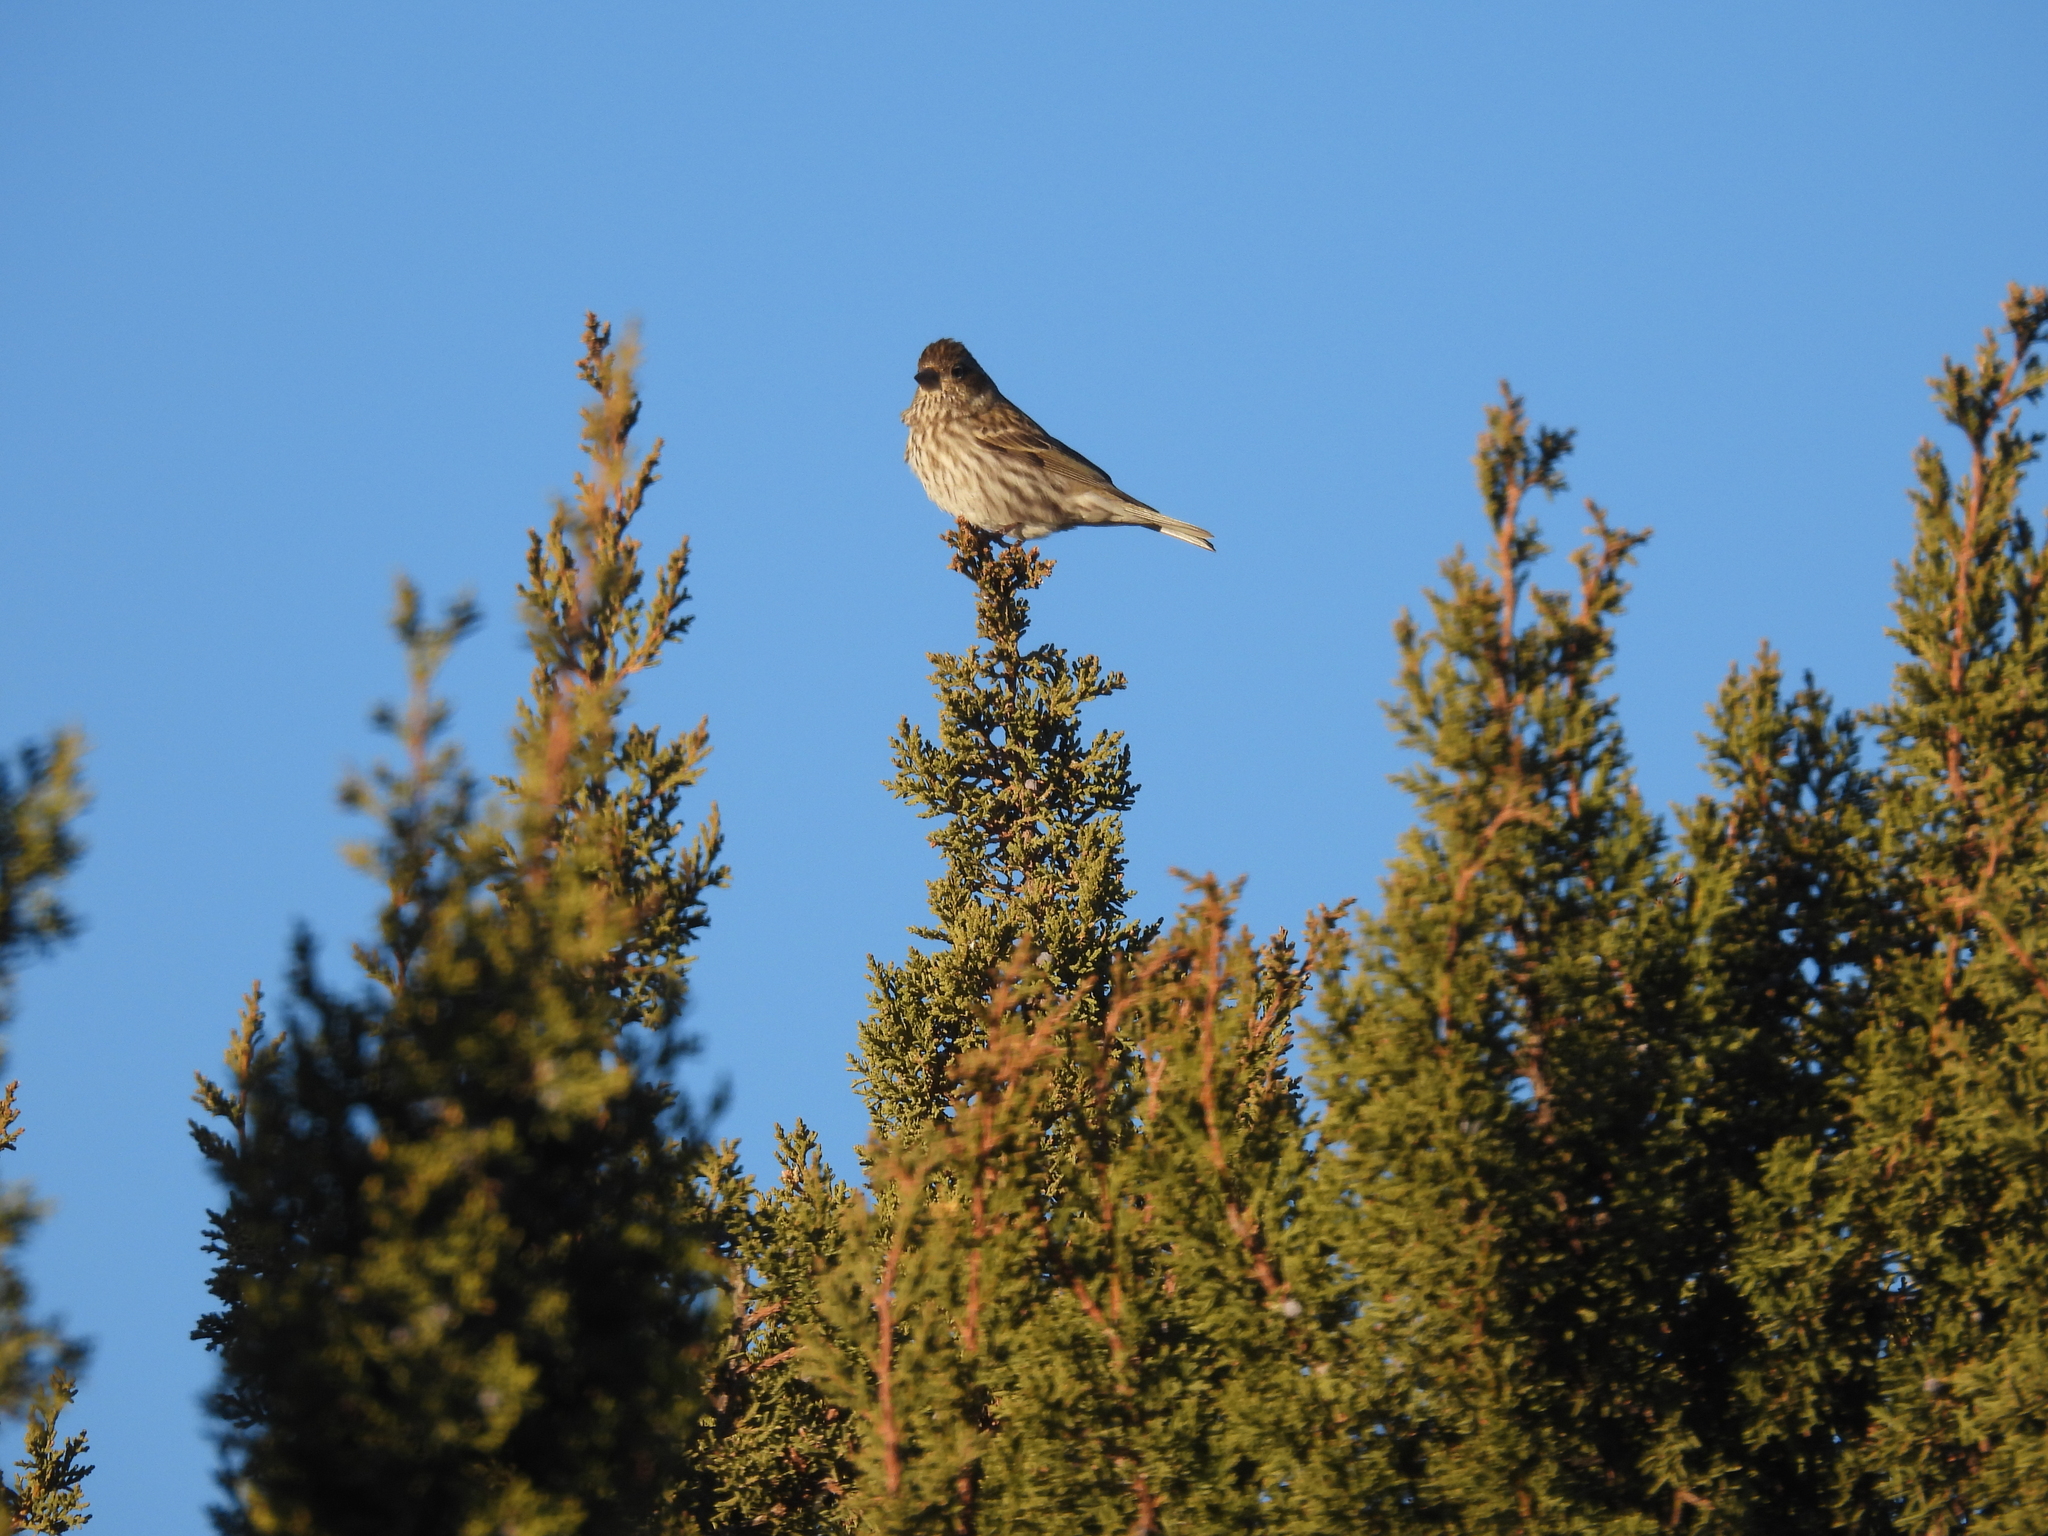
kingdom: Animalia
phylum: Chordata
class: Aves
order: Passeriformes
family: Fringillidae
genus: Haemorhous
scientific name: Haemorhous cassinii
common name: Cassin's finch
